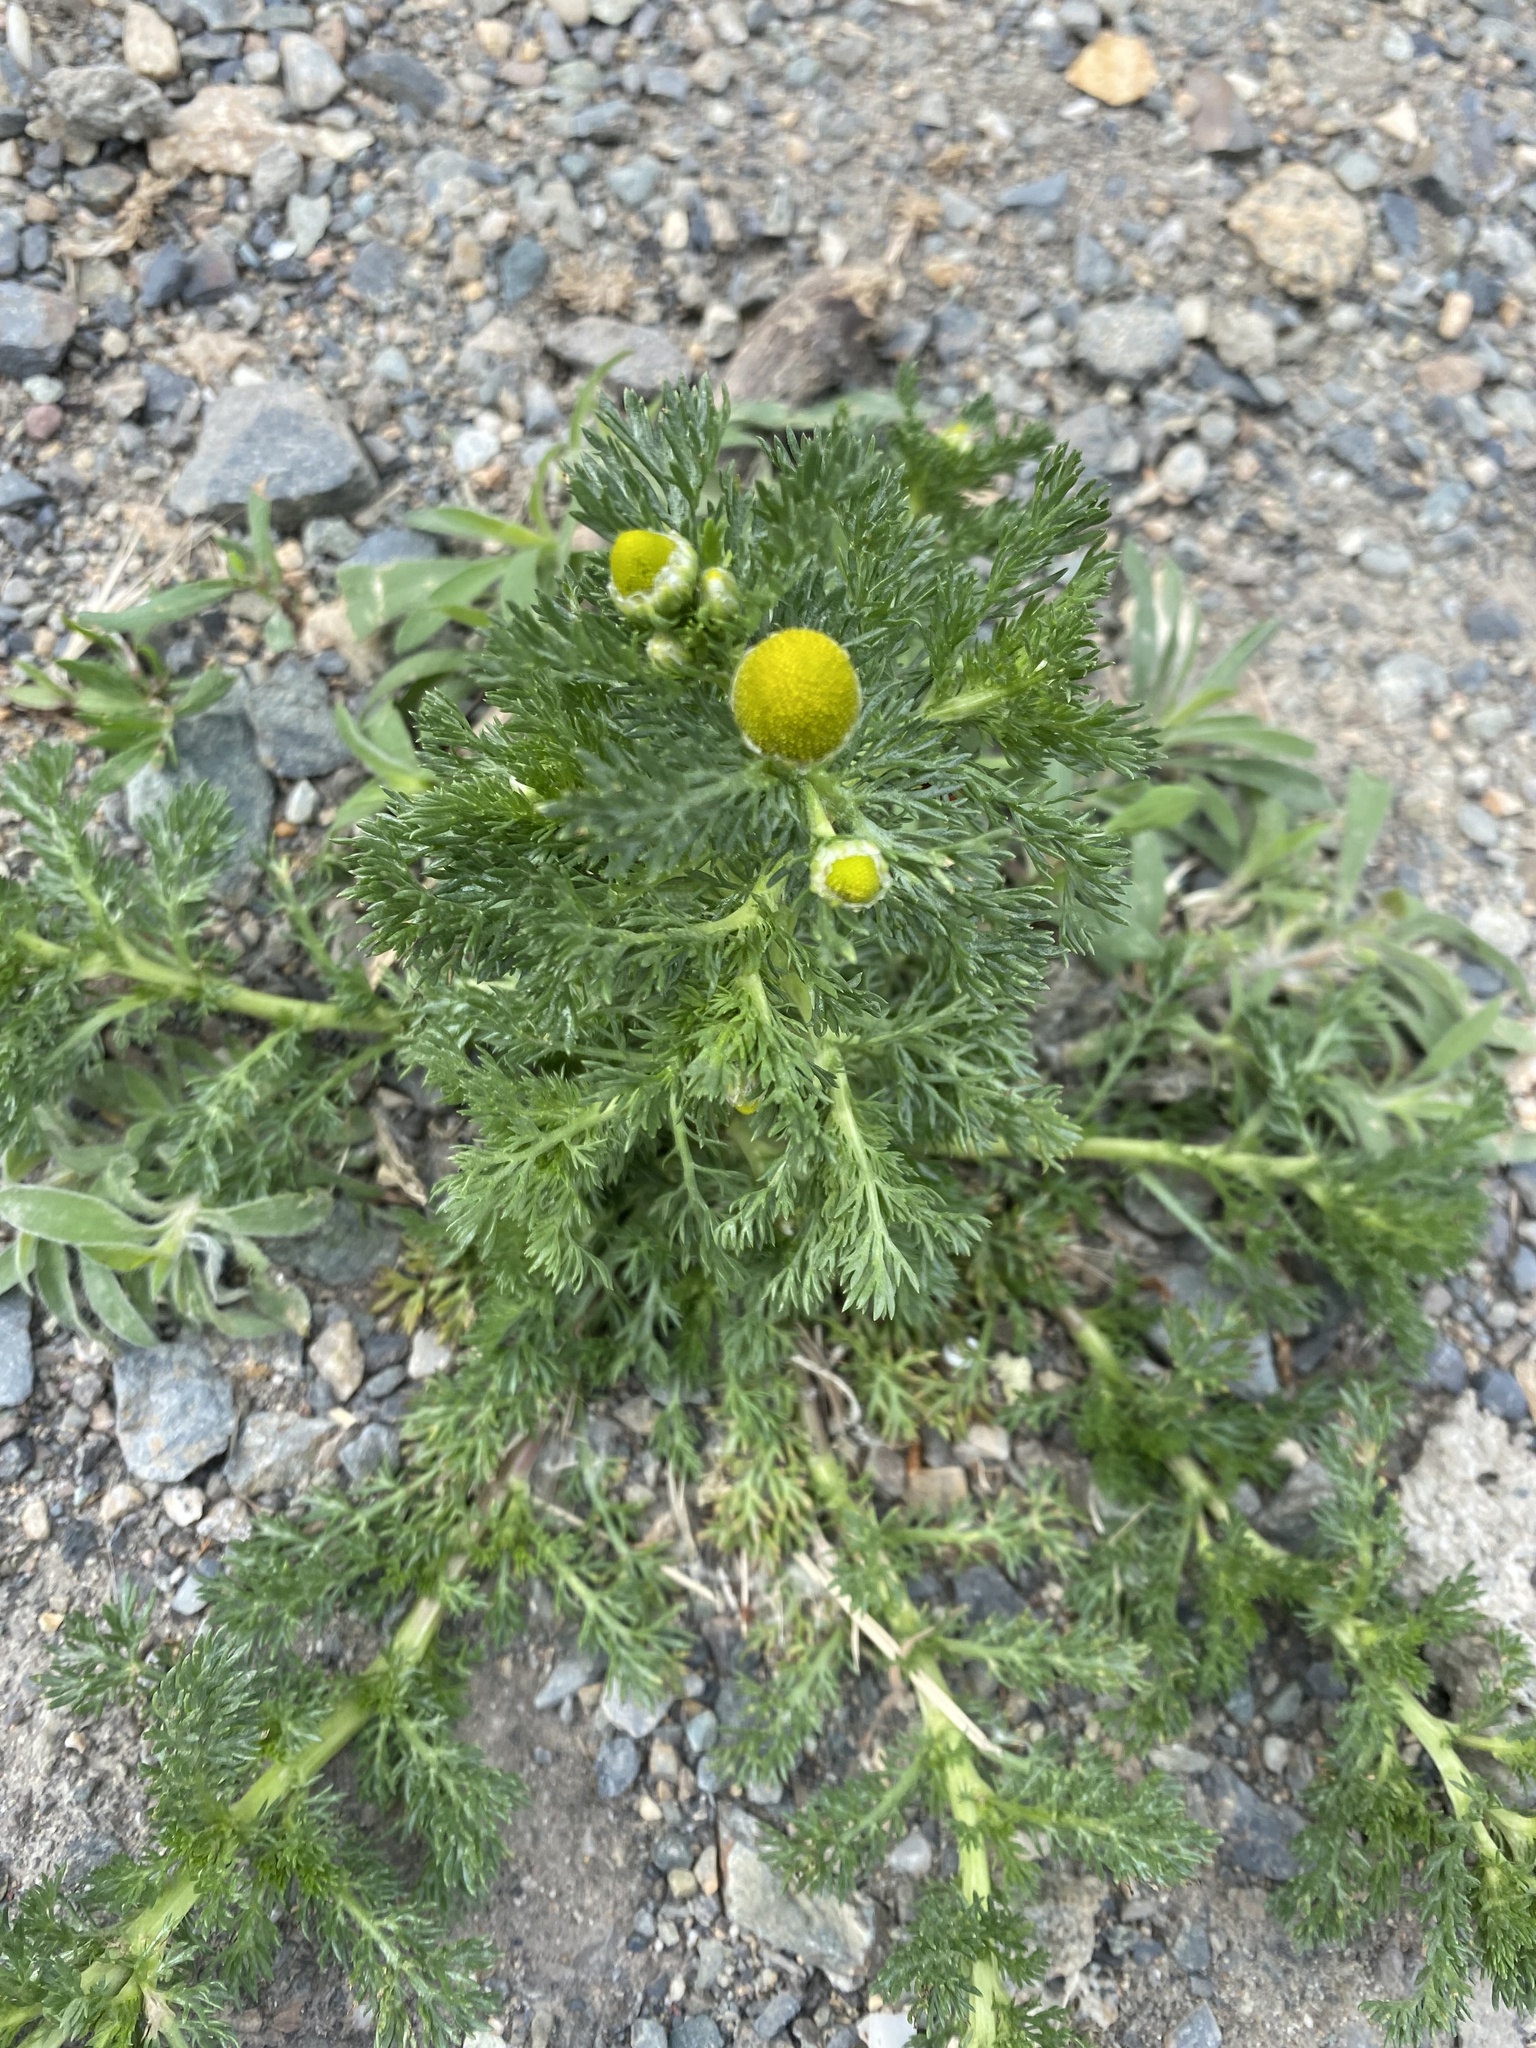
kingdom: Plantae
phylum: Tracheophyta
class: Magnoliopsida
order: Asterales
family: Asteraceae
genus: Matricaria
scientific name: Matricaria discoidea
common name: Disc mayweed
